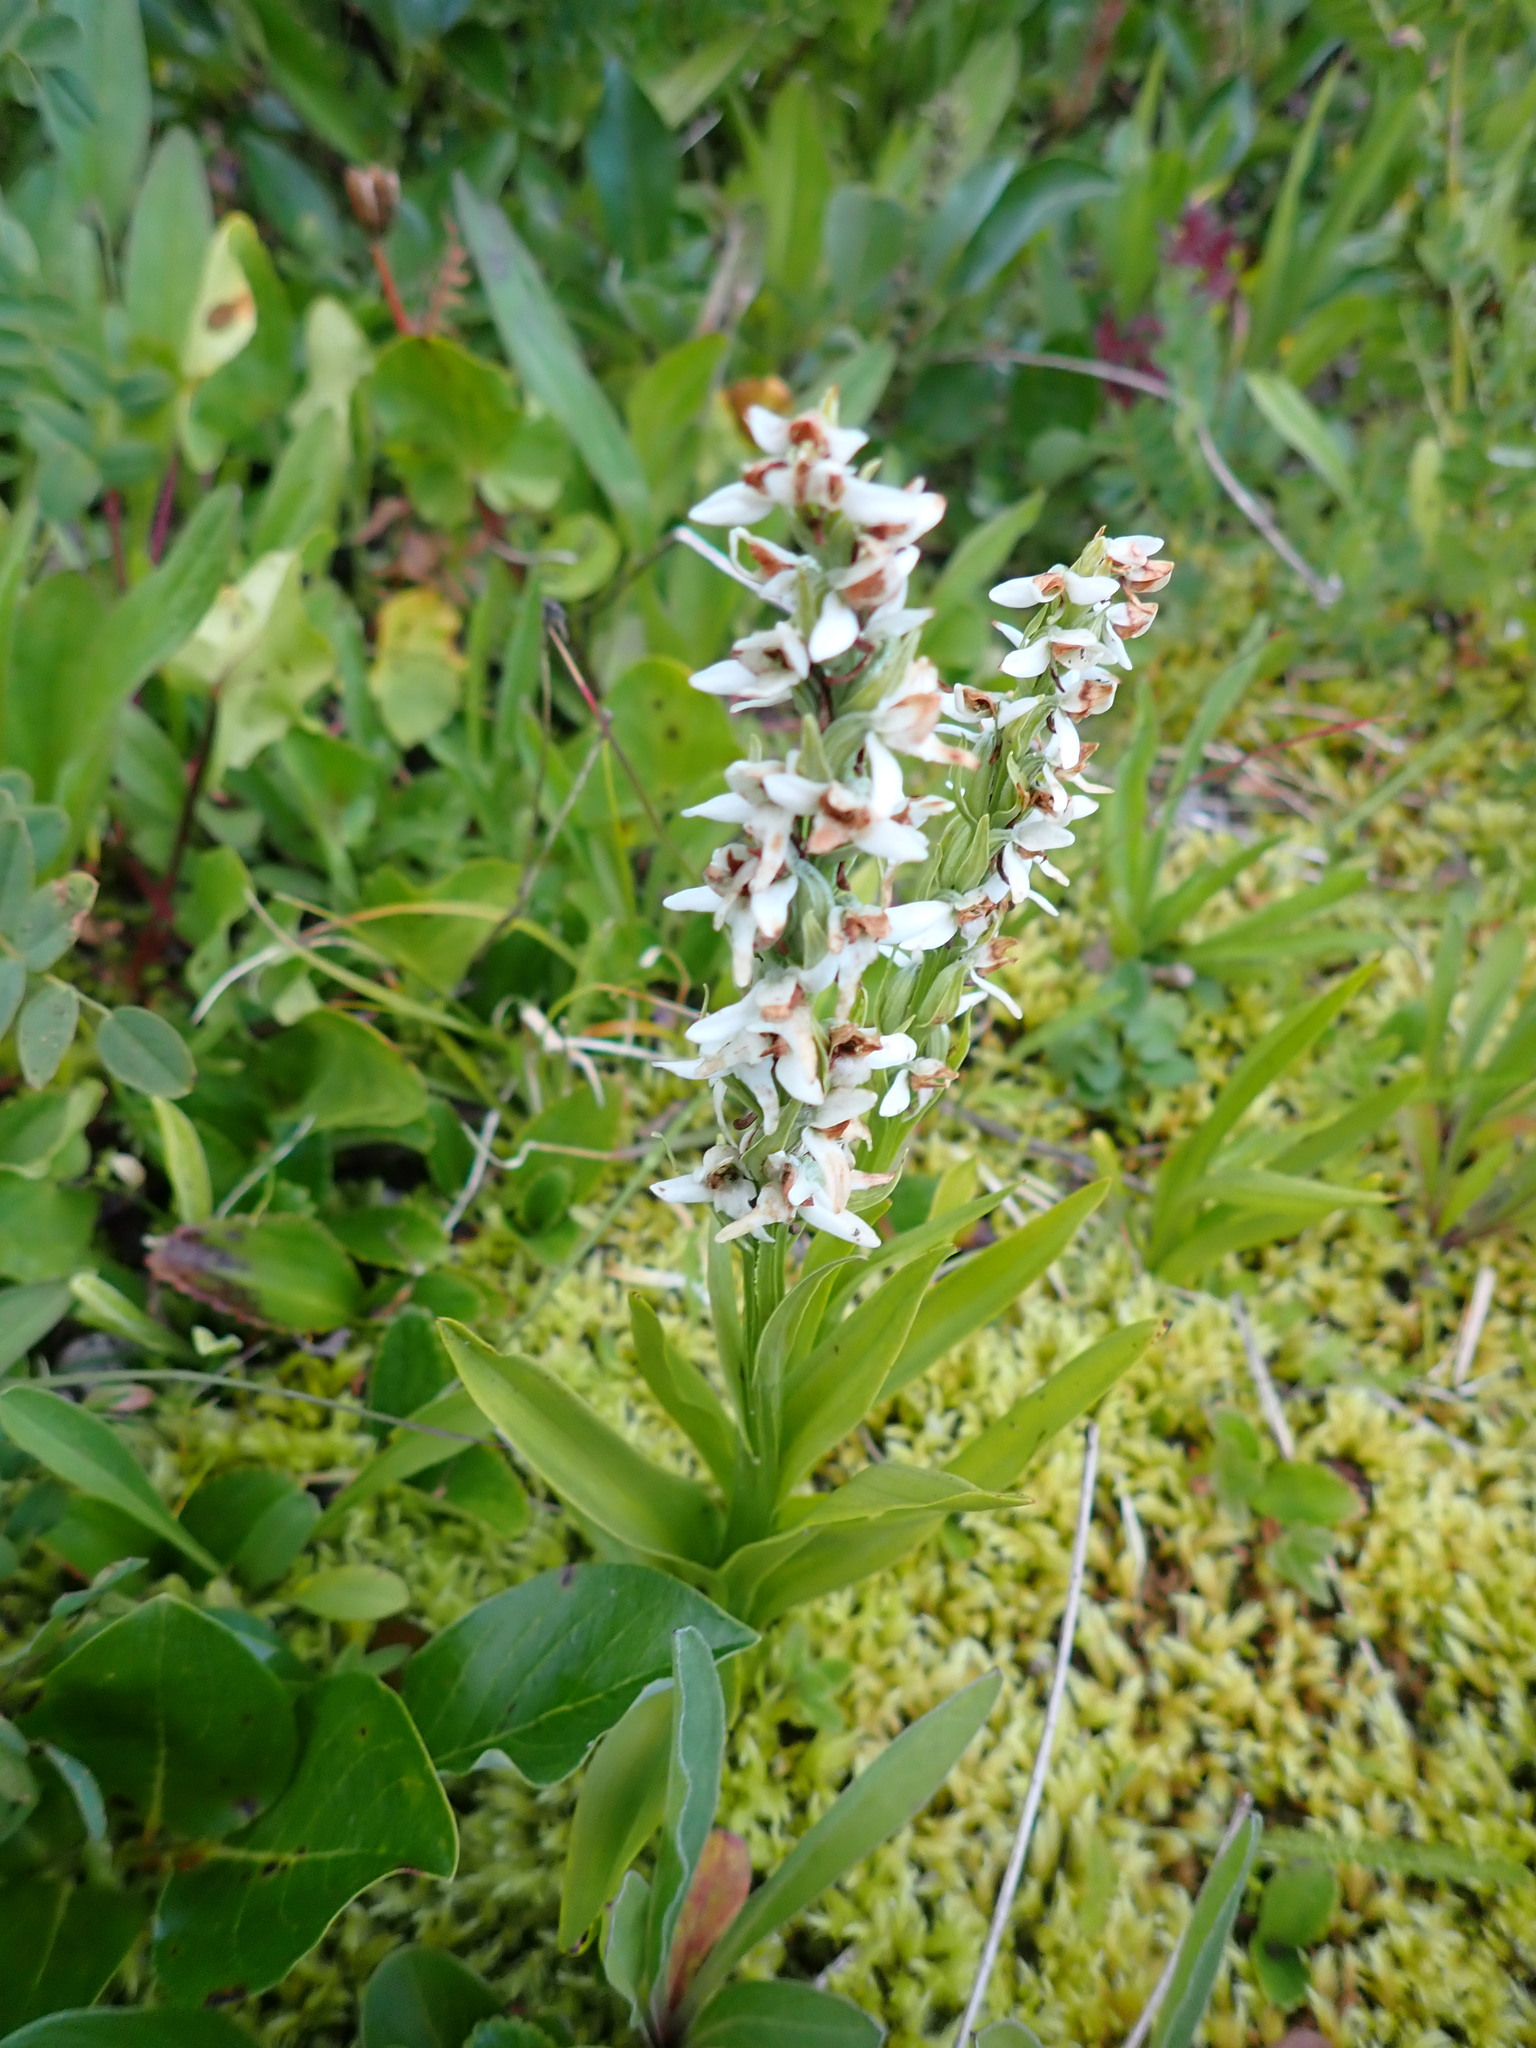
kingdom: Plantae
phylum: Tracheophyta
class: Liliopsida
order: Asparagales
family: Orchidaceae
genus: Platanthera
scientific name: Platanthera dilatata
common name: Bog candles
